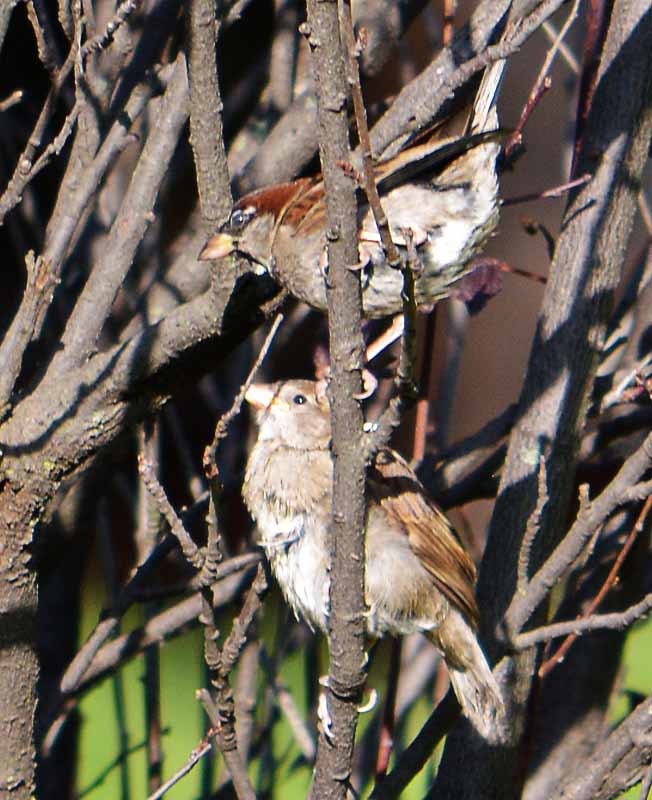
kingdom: Animalia
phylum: Chordata
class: Aves
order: Passeriformes
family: Passeridae
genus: Passer
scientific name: Passer domesticus
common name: House sparrow
